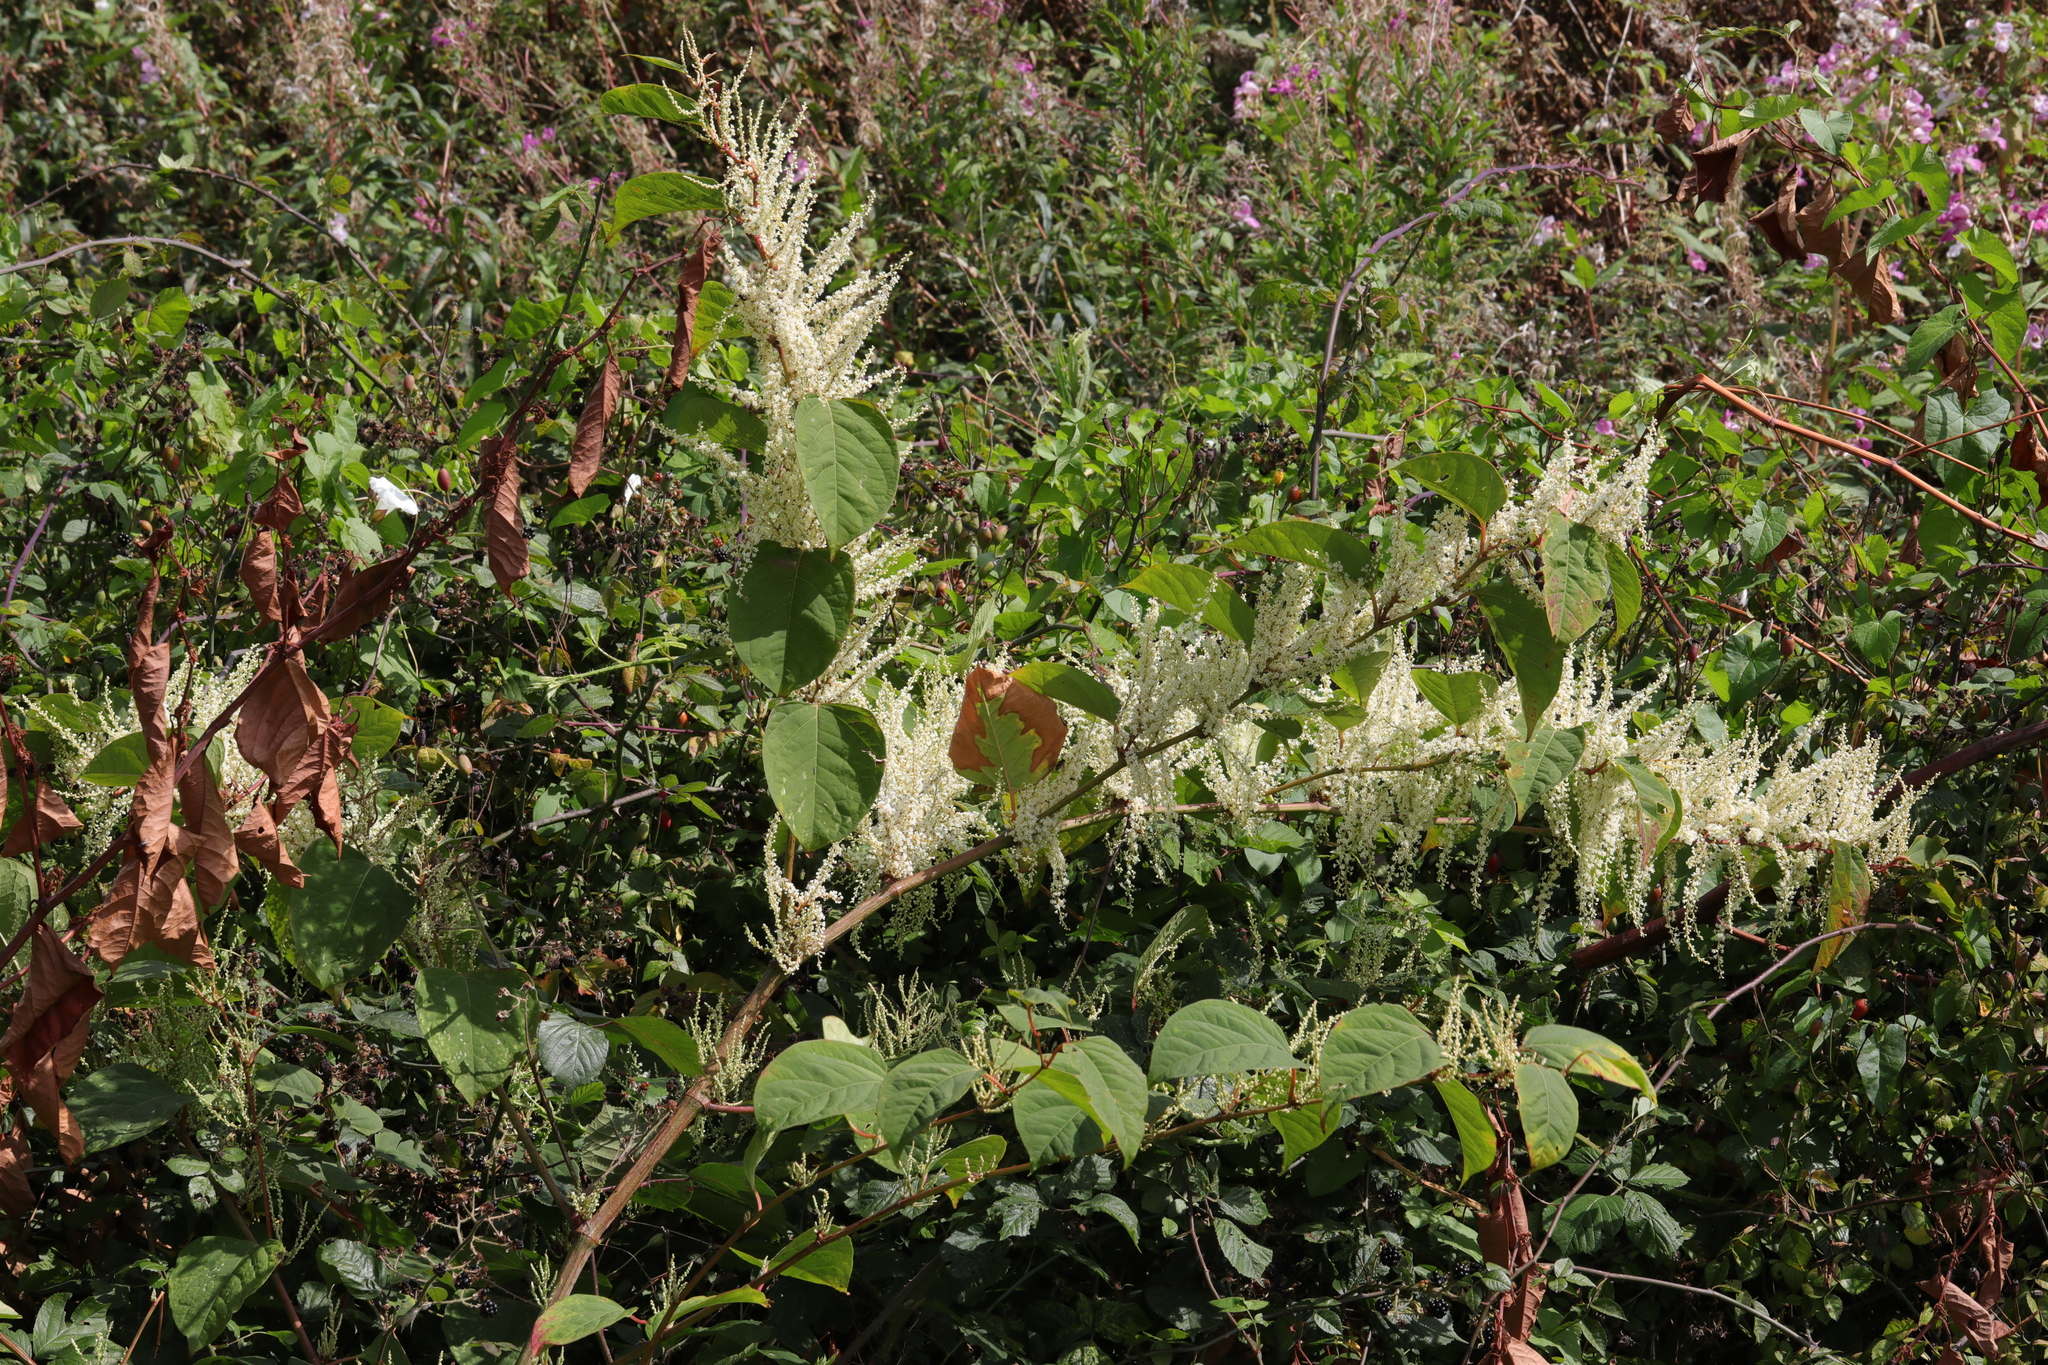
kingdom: Plantae
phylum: Tracheophyta
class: Magnoliopsida
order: Caryophyllales
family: Polygonaceae
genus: Reynoutria
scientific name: Reynoutria japonica
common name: Japanese knotweed
